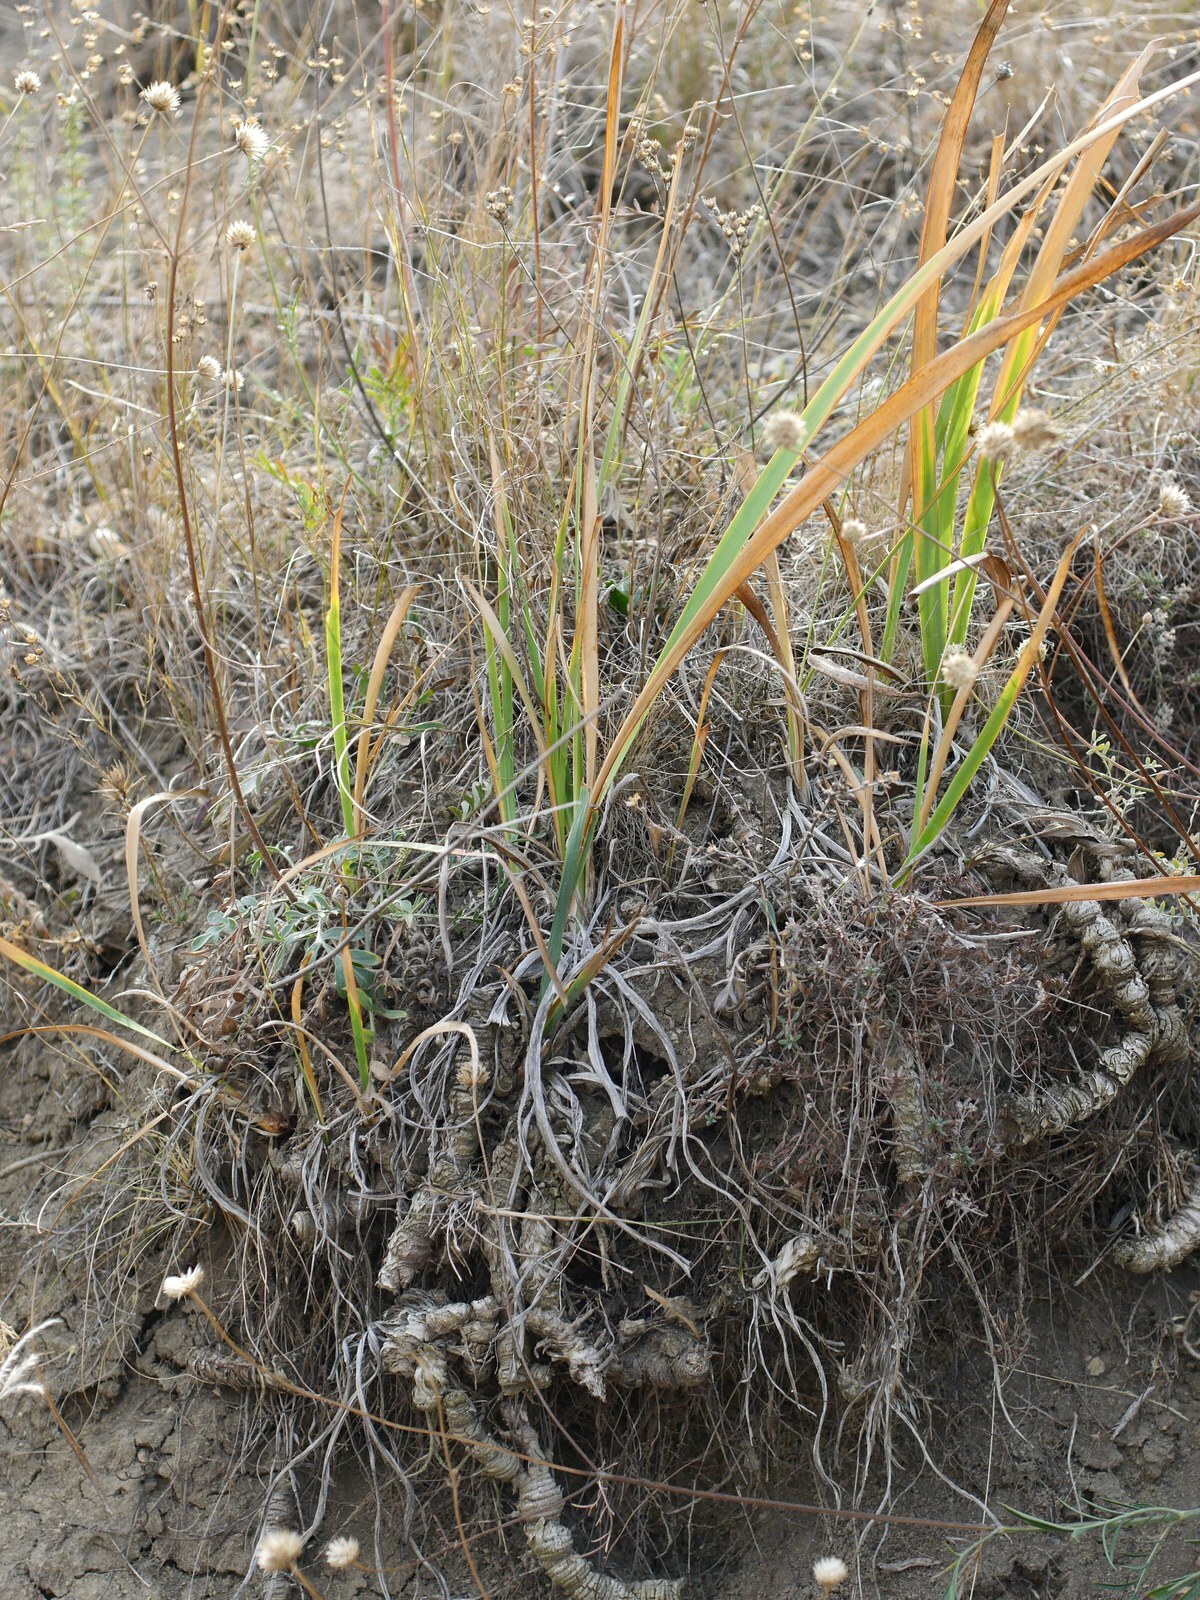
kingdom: Plantae
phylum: Tracheophyta
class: Liliopsida
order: Asparagales
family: Iridaceae
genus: Iris
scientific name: Iris halophila
